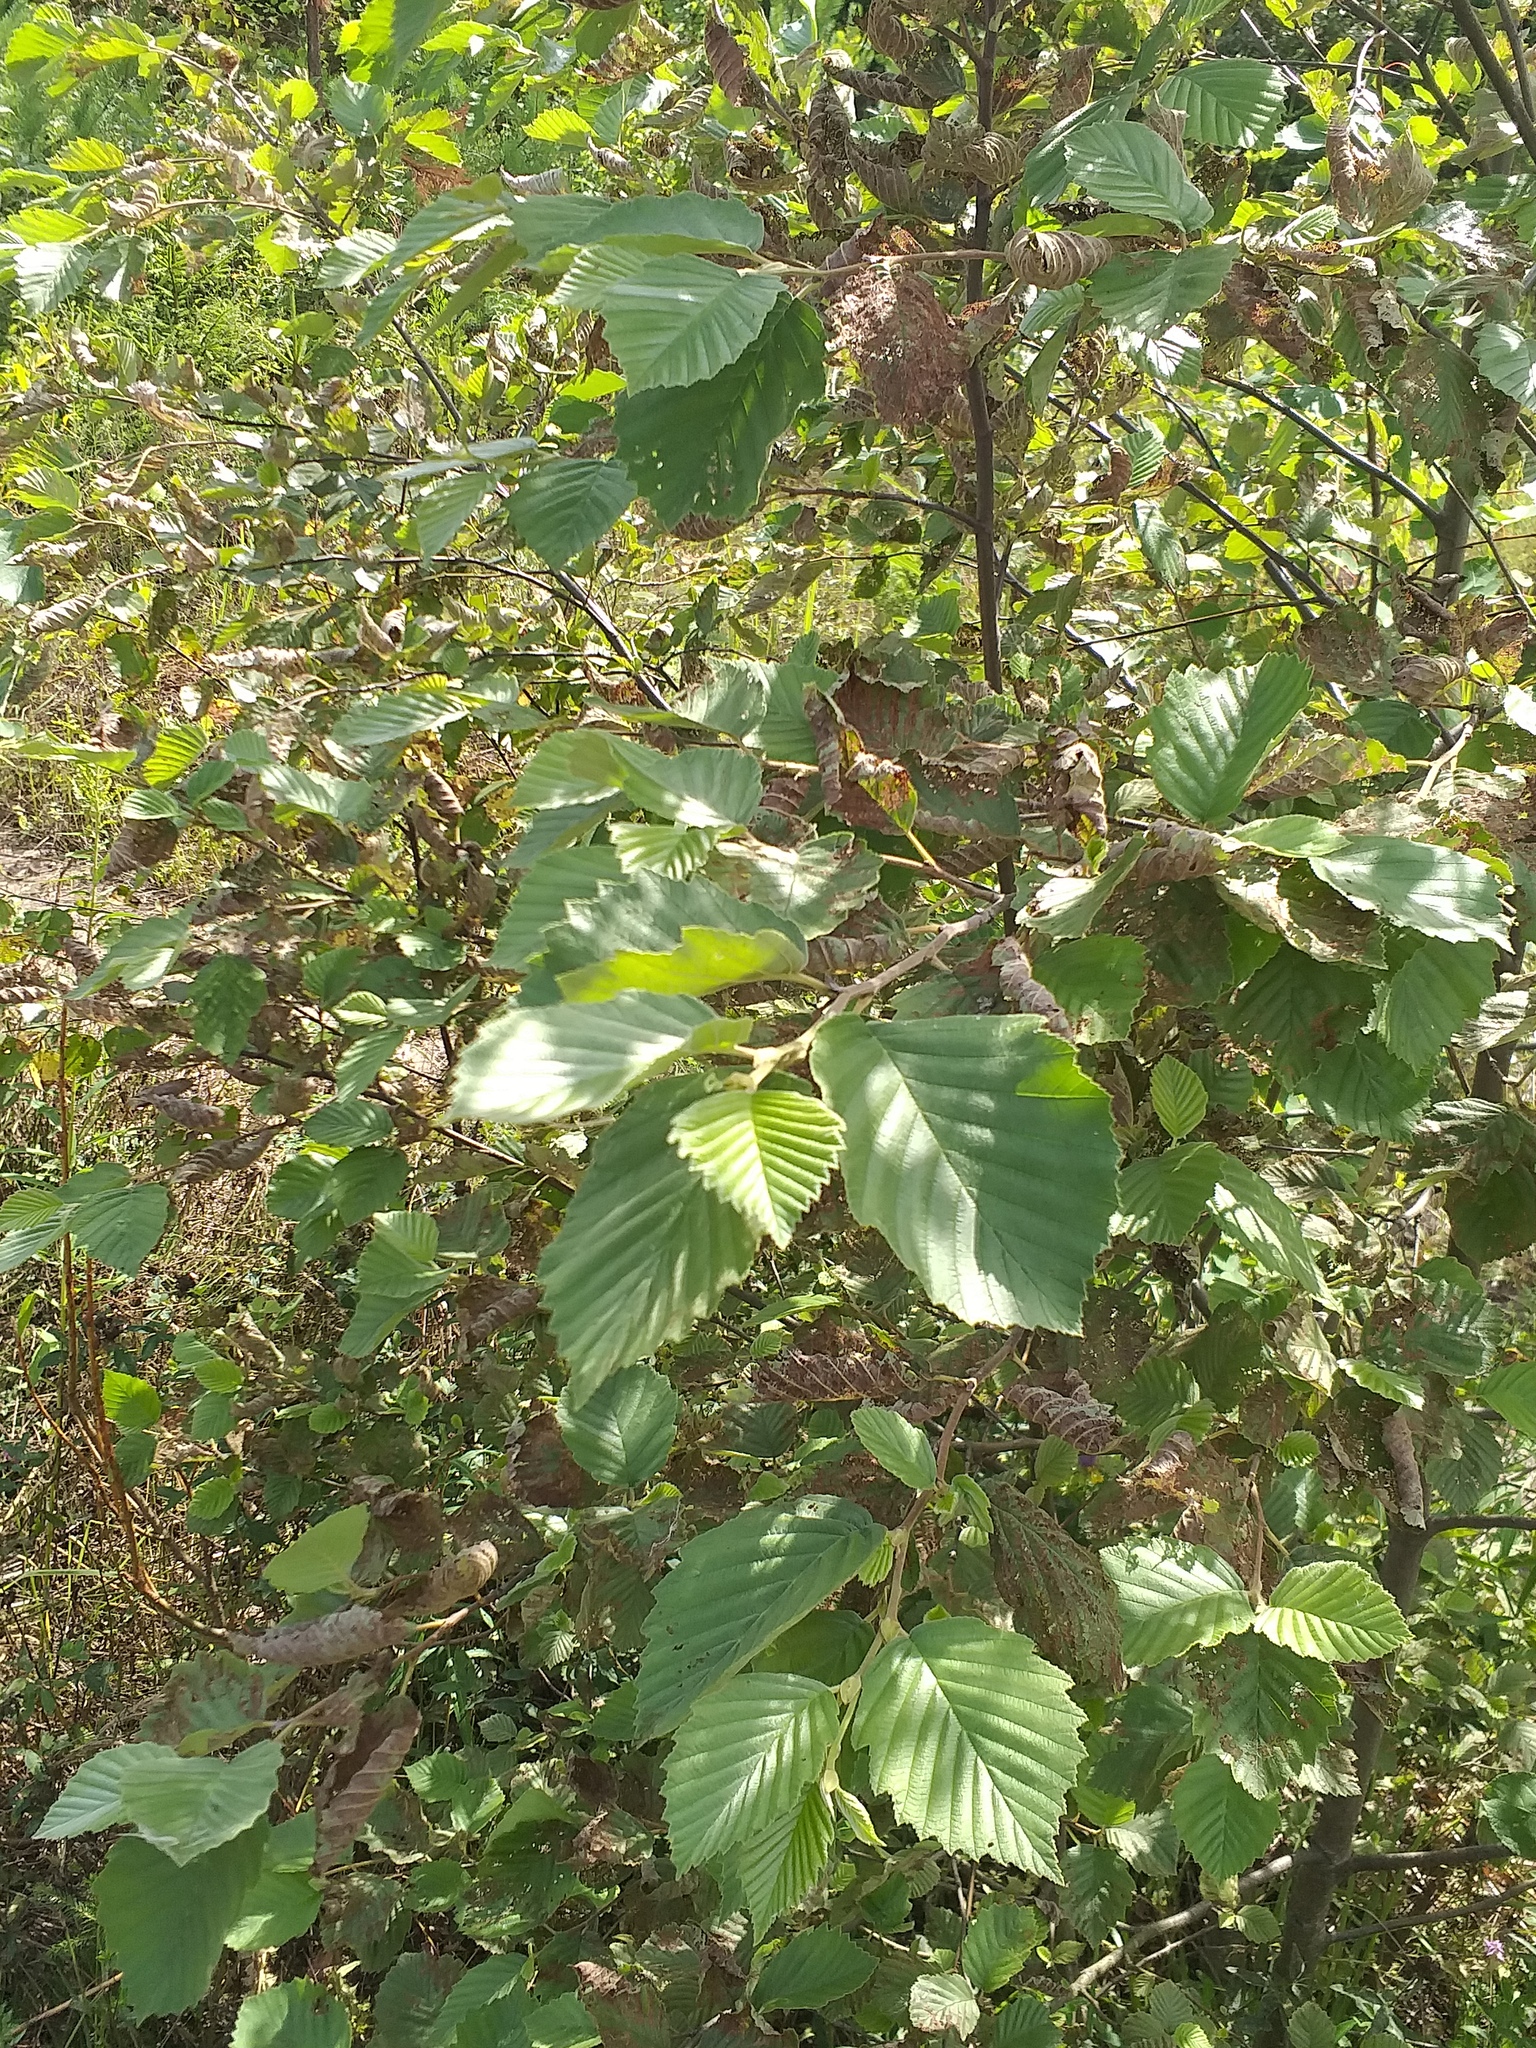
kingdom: Plantae
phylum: Tracheophyta
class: Magnoliopsida
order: Fagales
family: Betulaceae
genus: Alnus
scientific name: Alnus incana
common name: Grey alder
